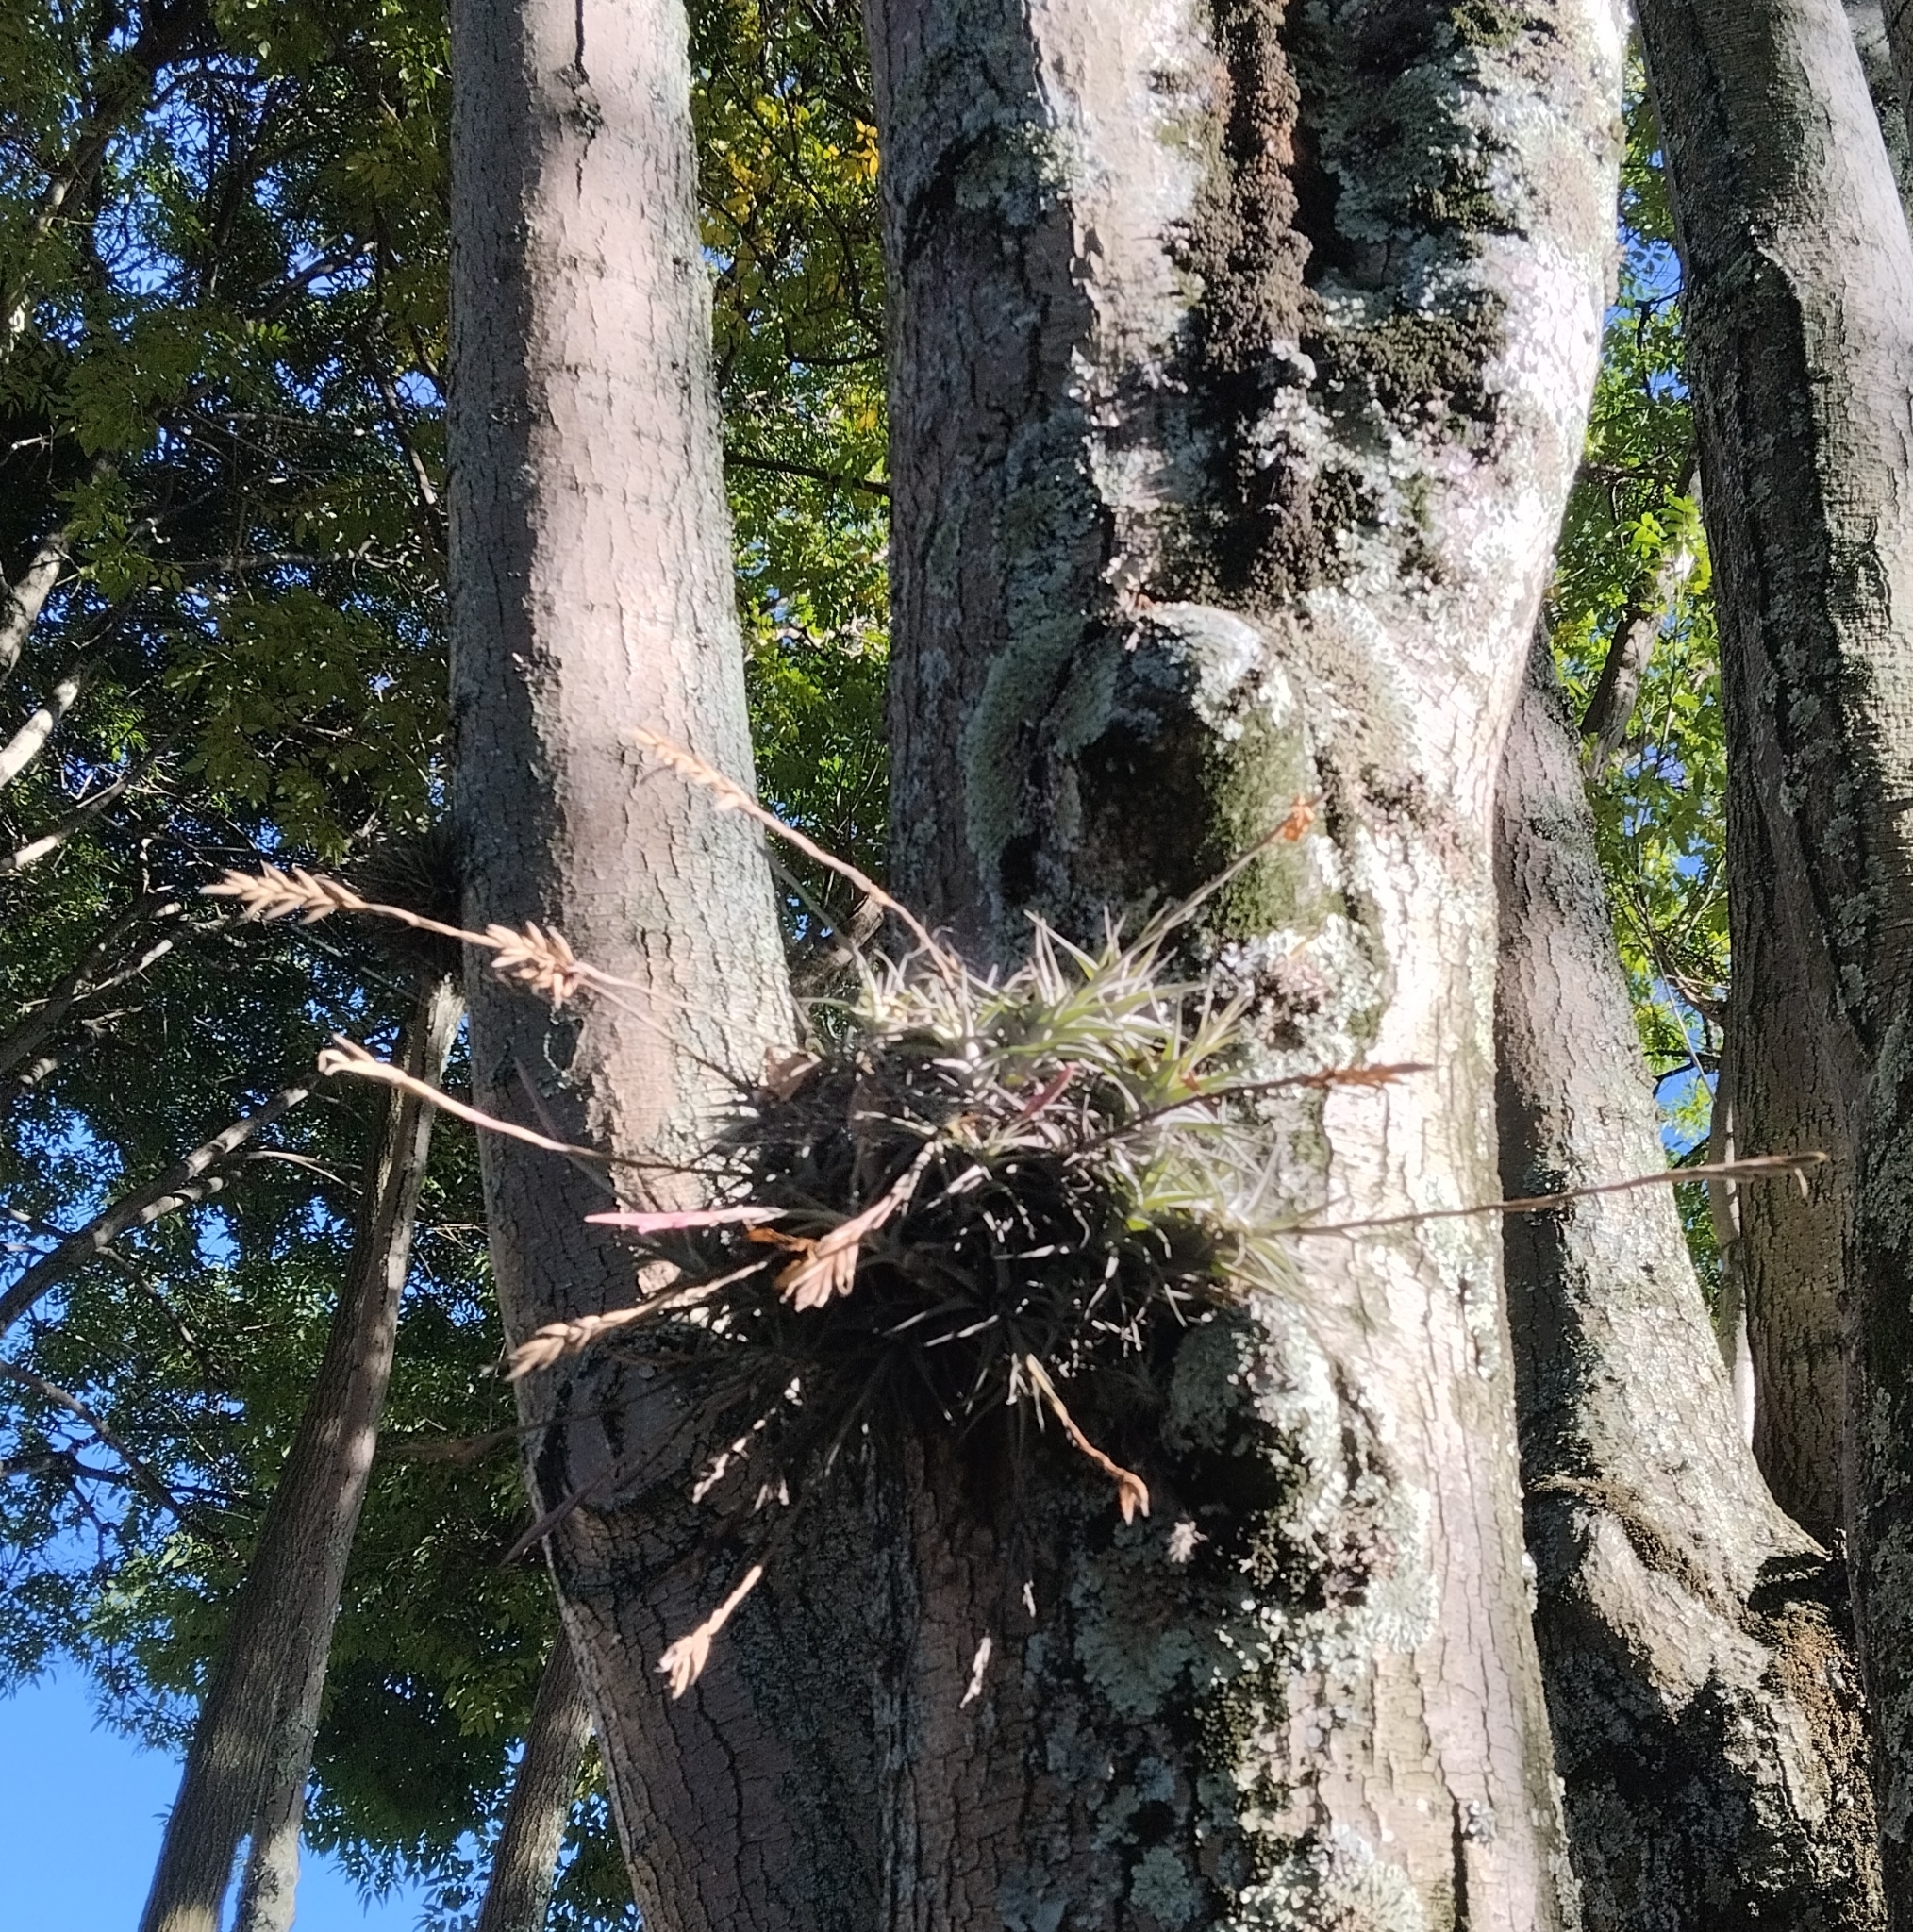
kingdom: Plantae
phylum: Tracheophyta
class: Liliopsida
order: Poales
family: Bromeliaceae
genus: Tillandsia
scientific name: Tillandsia incarnata
